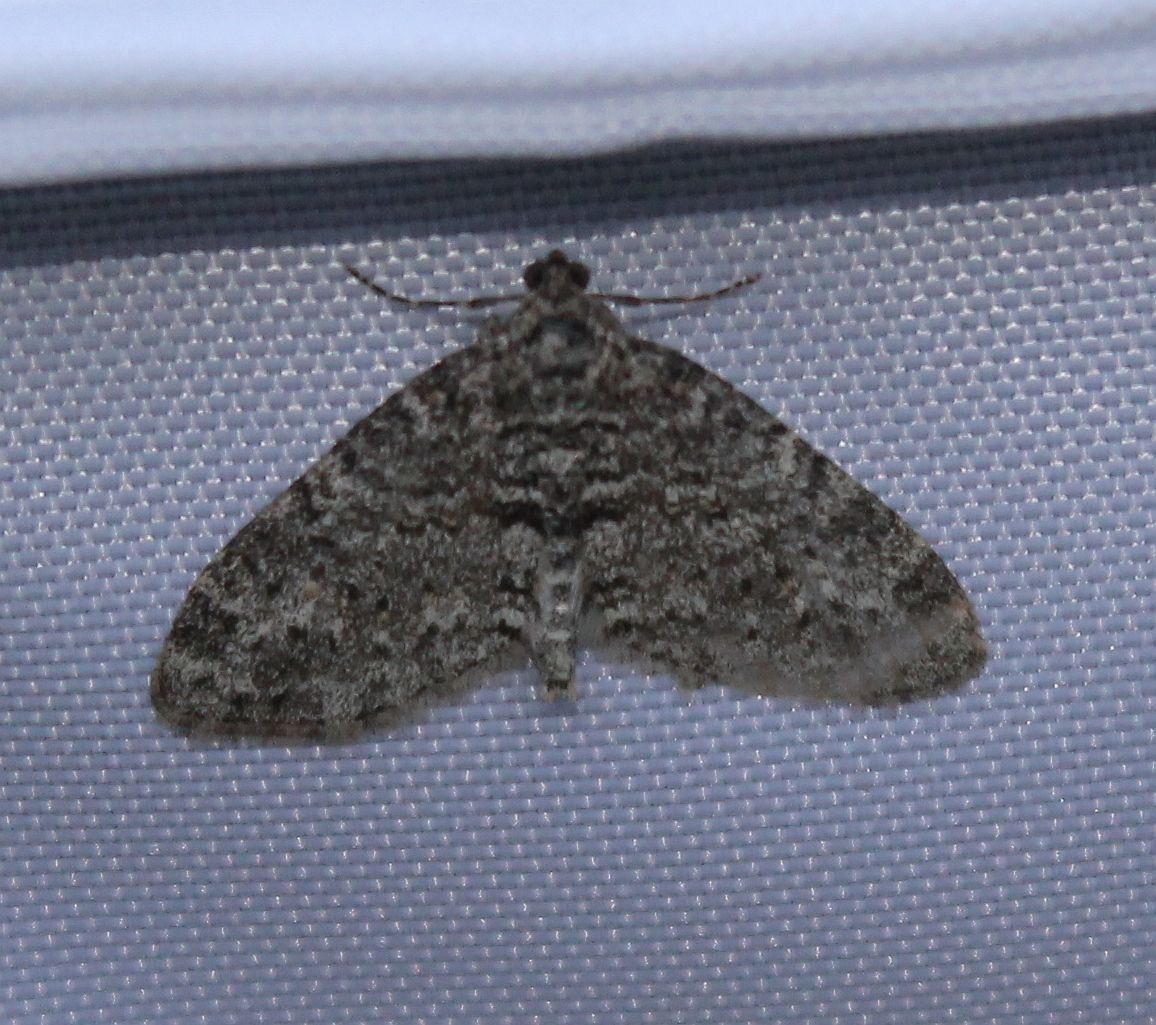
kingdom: Animalia
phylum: Arthropoda
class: Insecta
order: Lepidoptera
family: Geometridae
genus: Lobophora
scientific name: Lobophora halterata
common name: Seraphim
